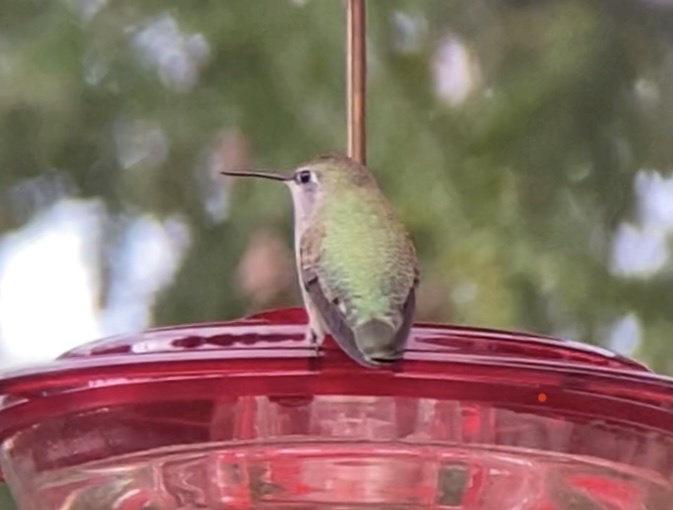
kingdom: Animalia
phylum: Chordata
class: Aves
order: Apodiformes
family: Trochilidae
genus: Calypte
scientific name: Calypte anna
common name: Anna's hummingbird
